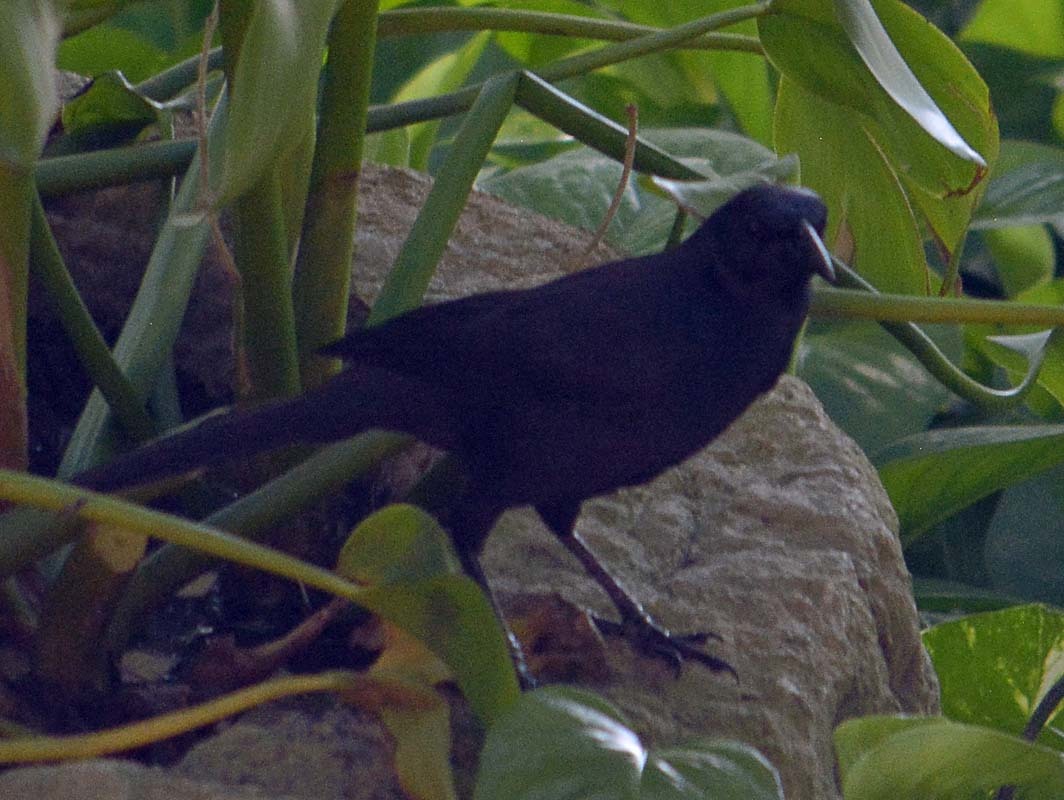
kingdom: Animalia
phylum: Chordata
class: Aves
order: Passeriformes
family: Icteridae
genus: Dives
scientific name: Dives dives
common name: Melodious blackbird
